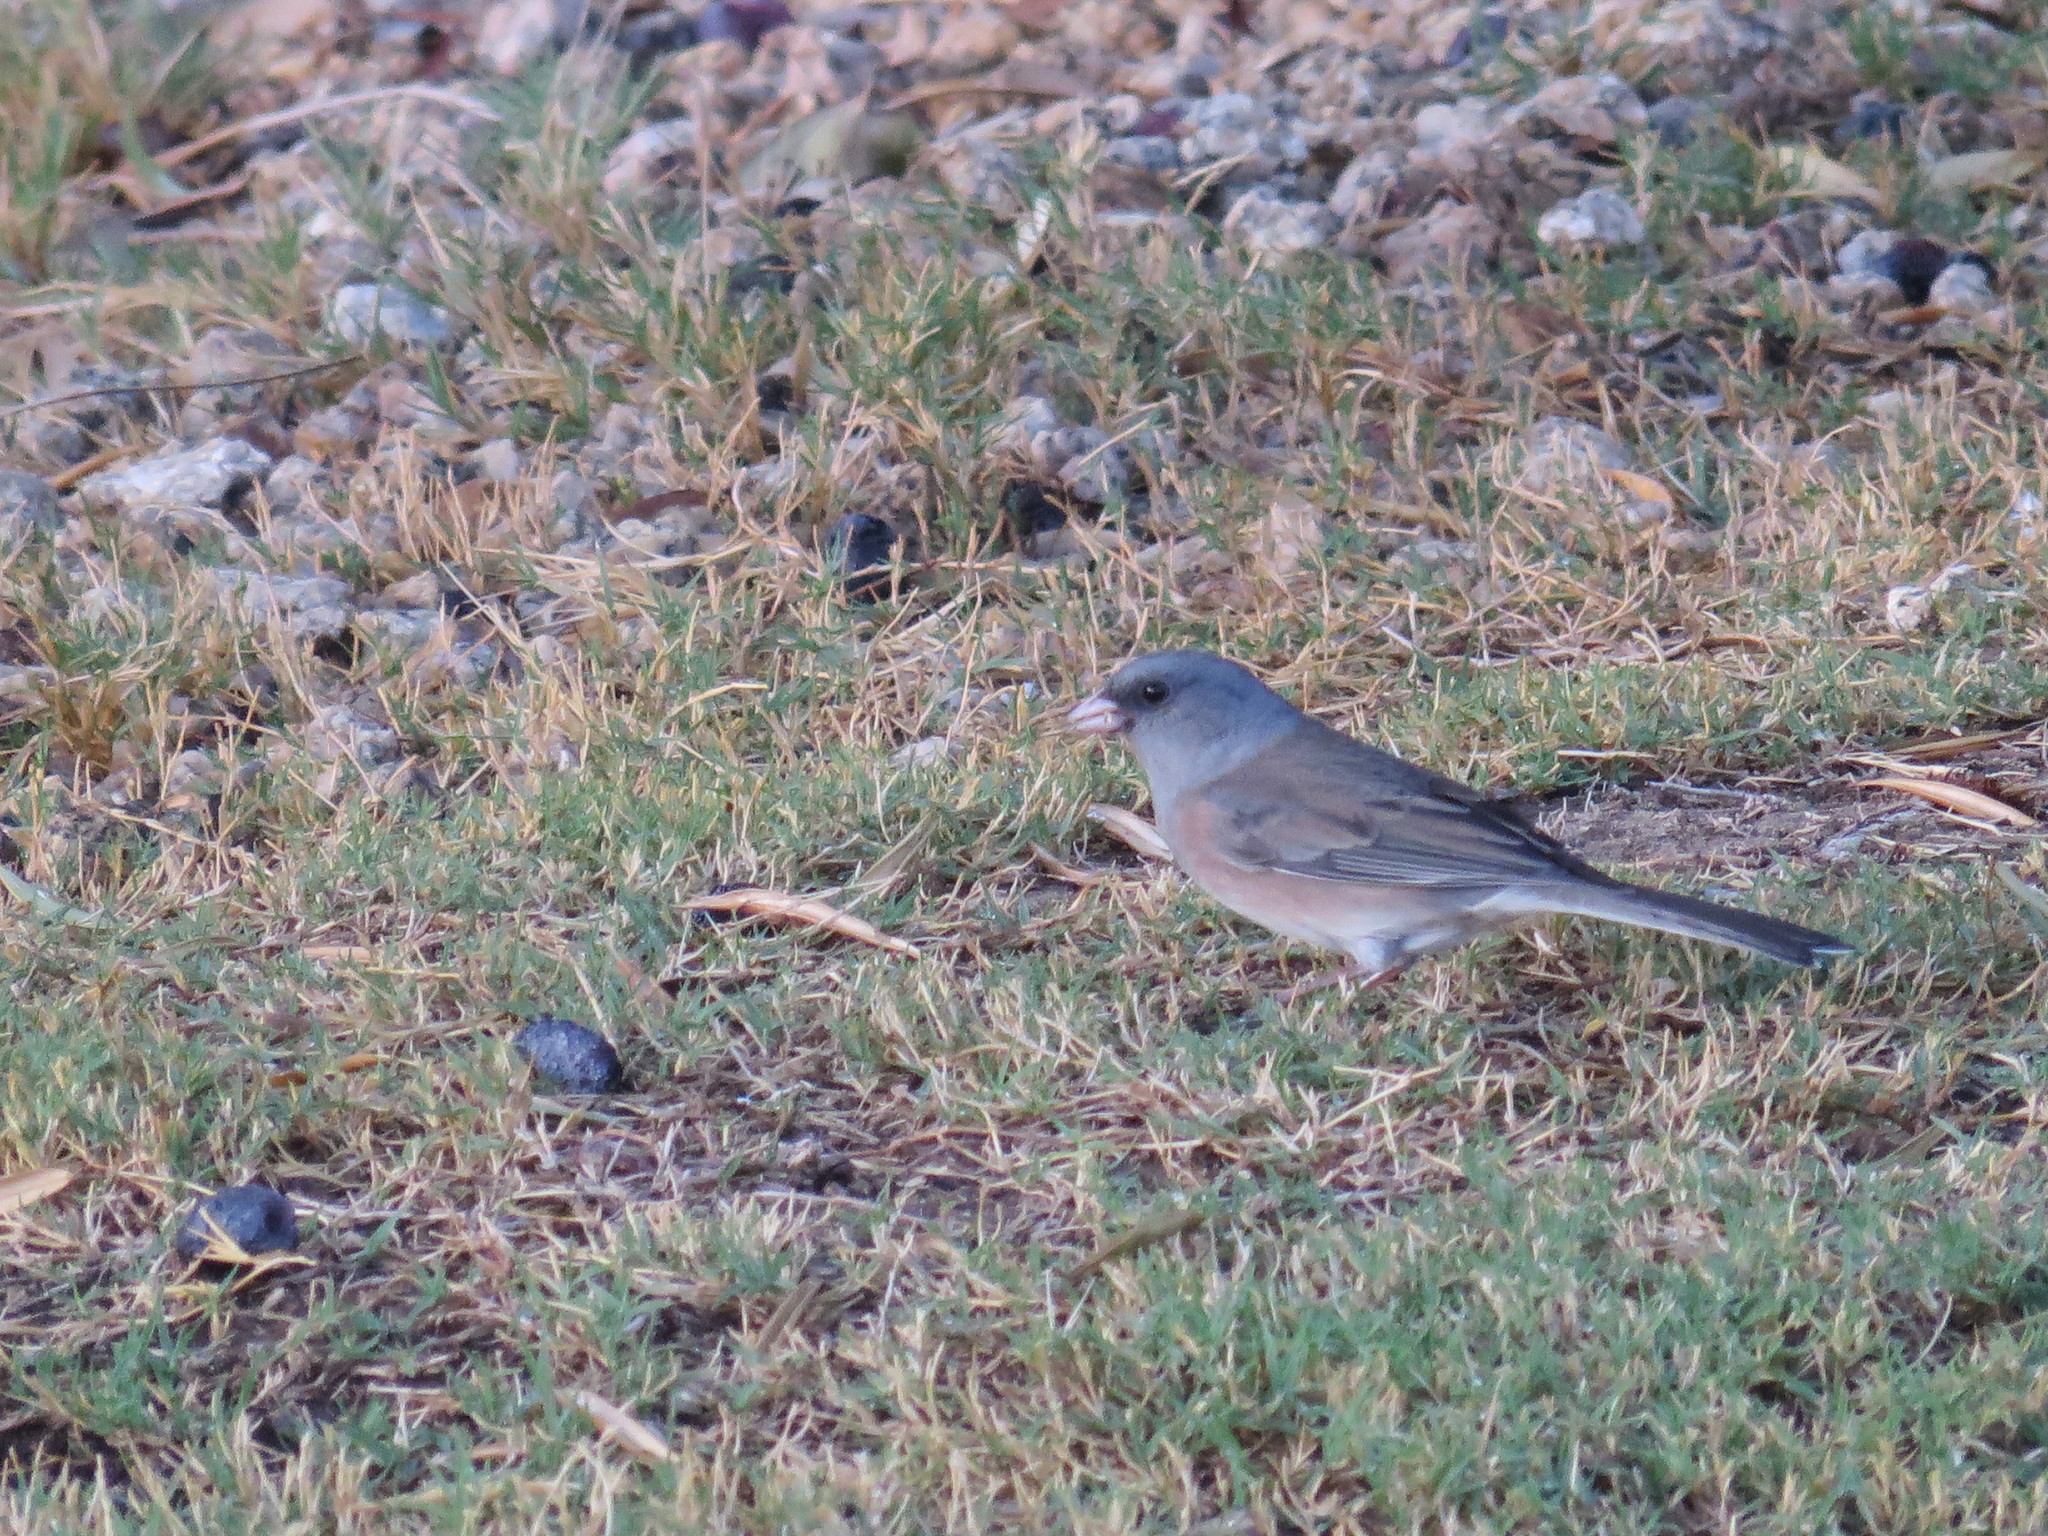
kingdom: Animalia
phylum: Chordata
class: Aves
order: Passeriformes
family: Passerellidae
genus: Junco
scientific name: Junco hyemalis
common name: Dark-eyed junco
